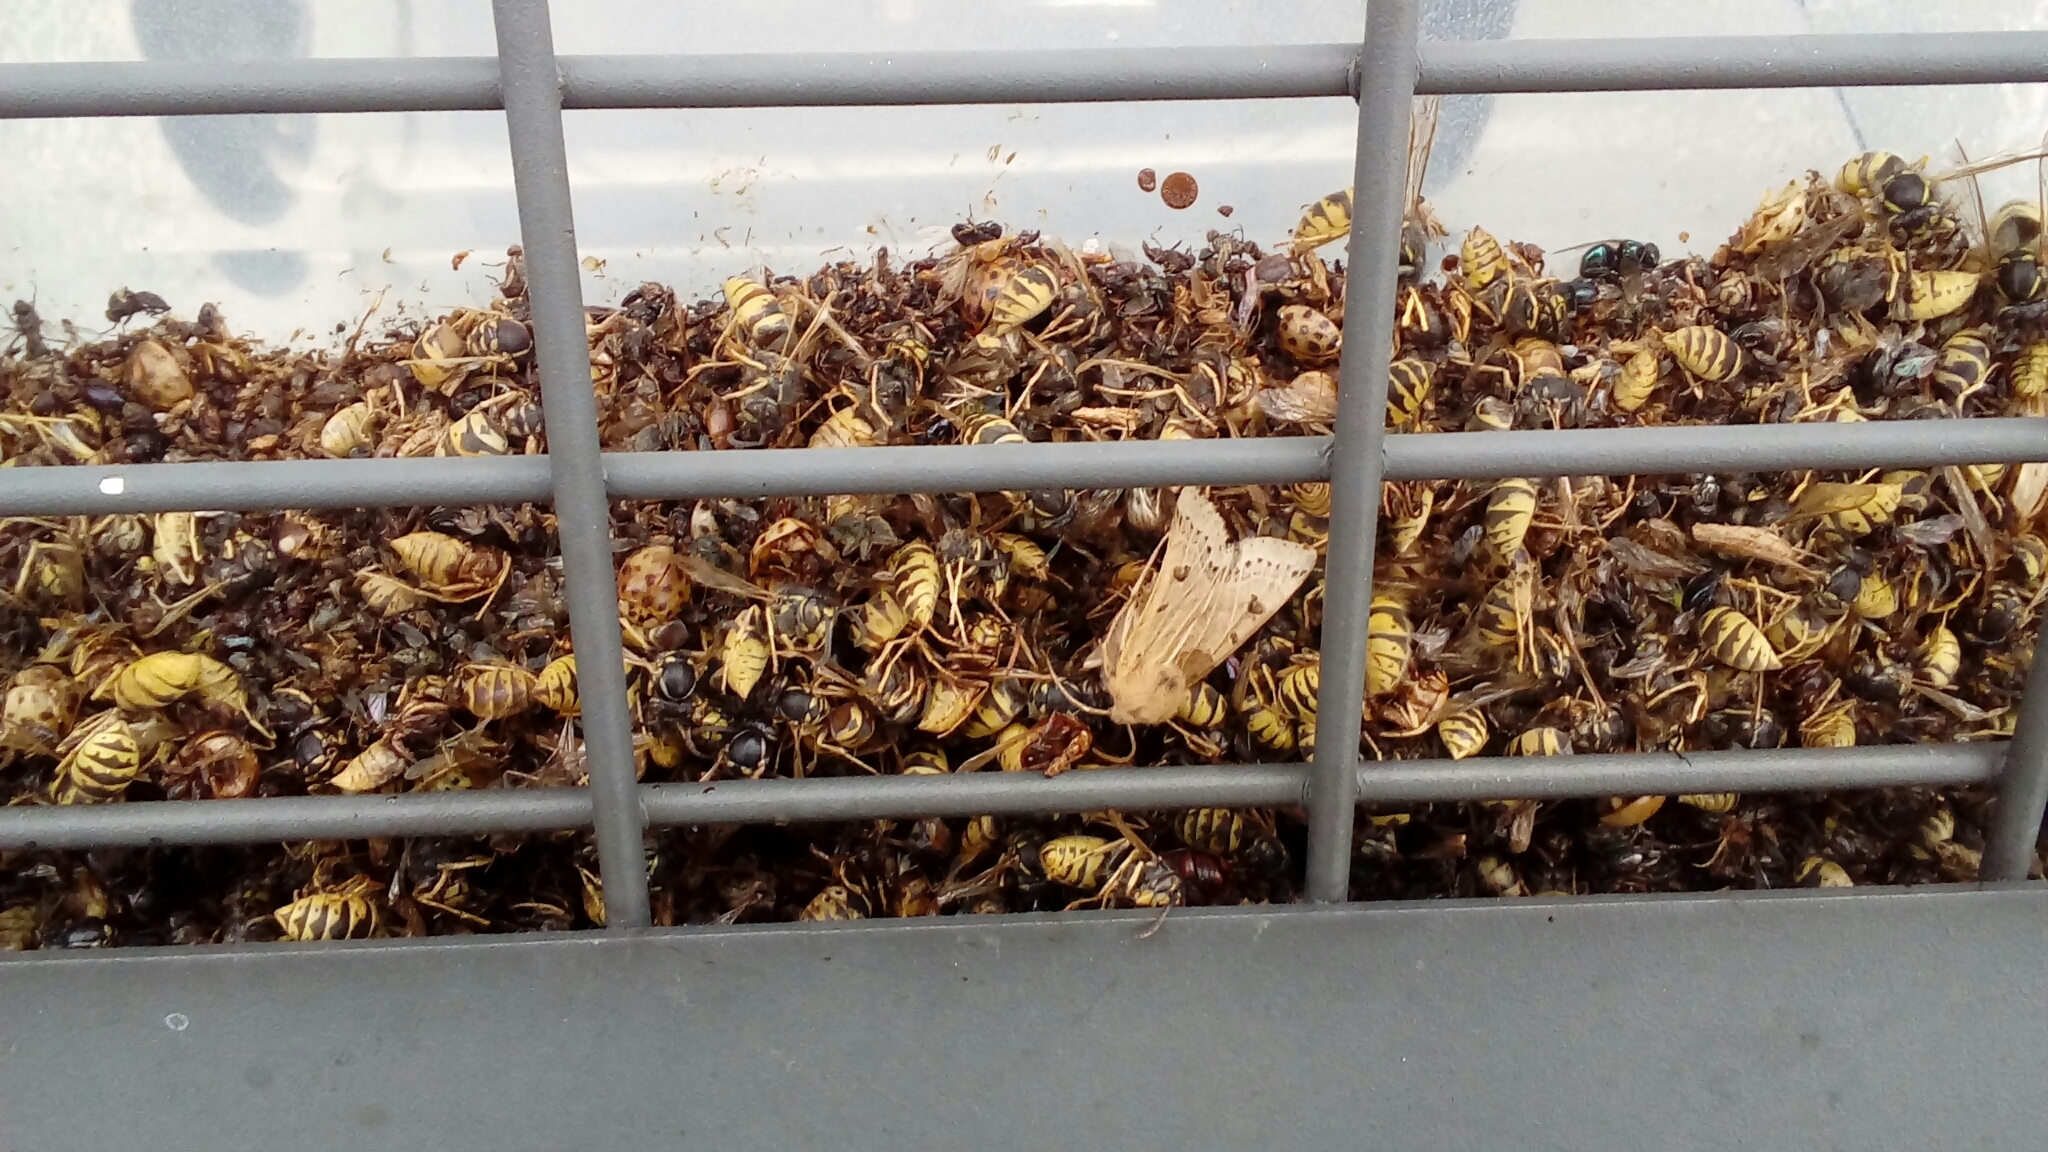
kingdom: Animalia
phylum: Arthropoda
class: Insecta
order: Lepidoptera
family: Noctuidae
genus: Agrochola
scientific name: Agrochola lunosa
